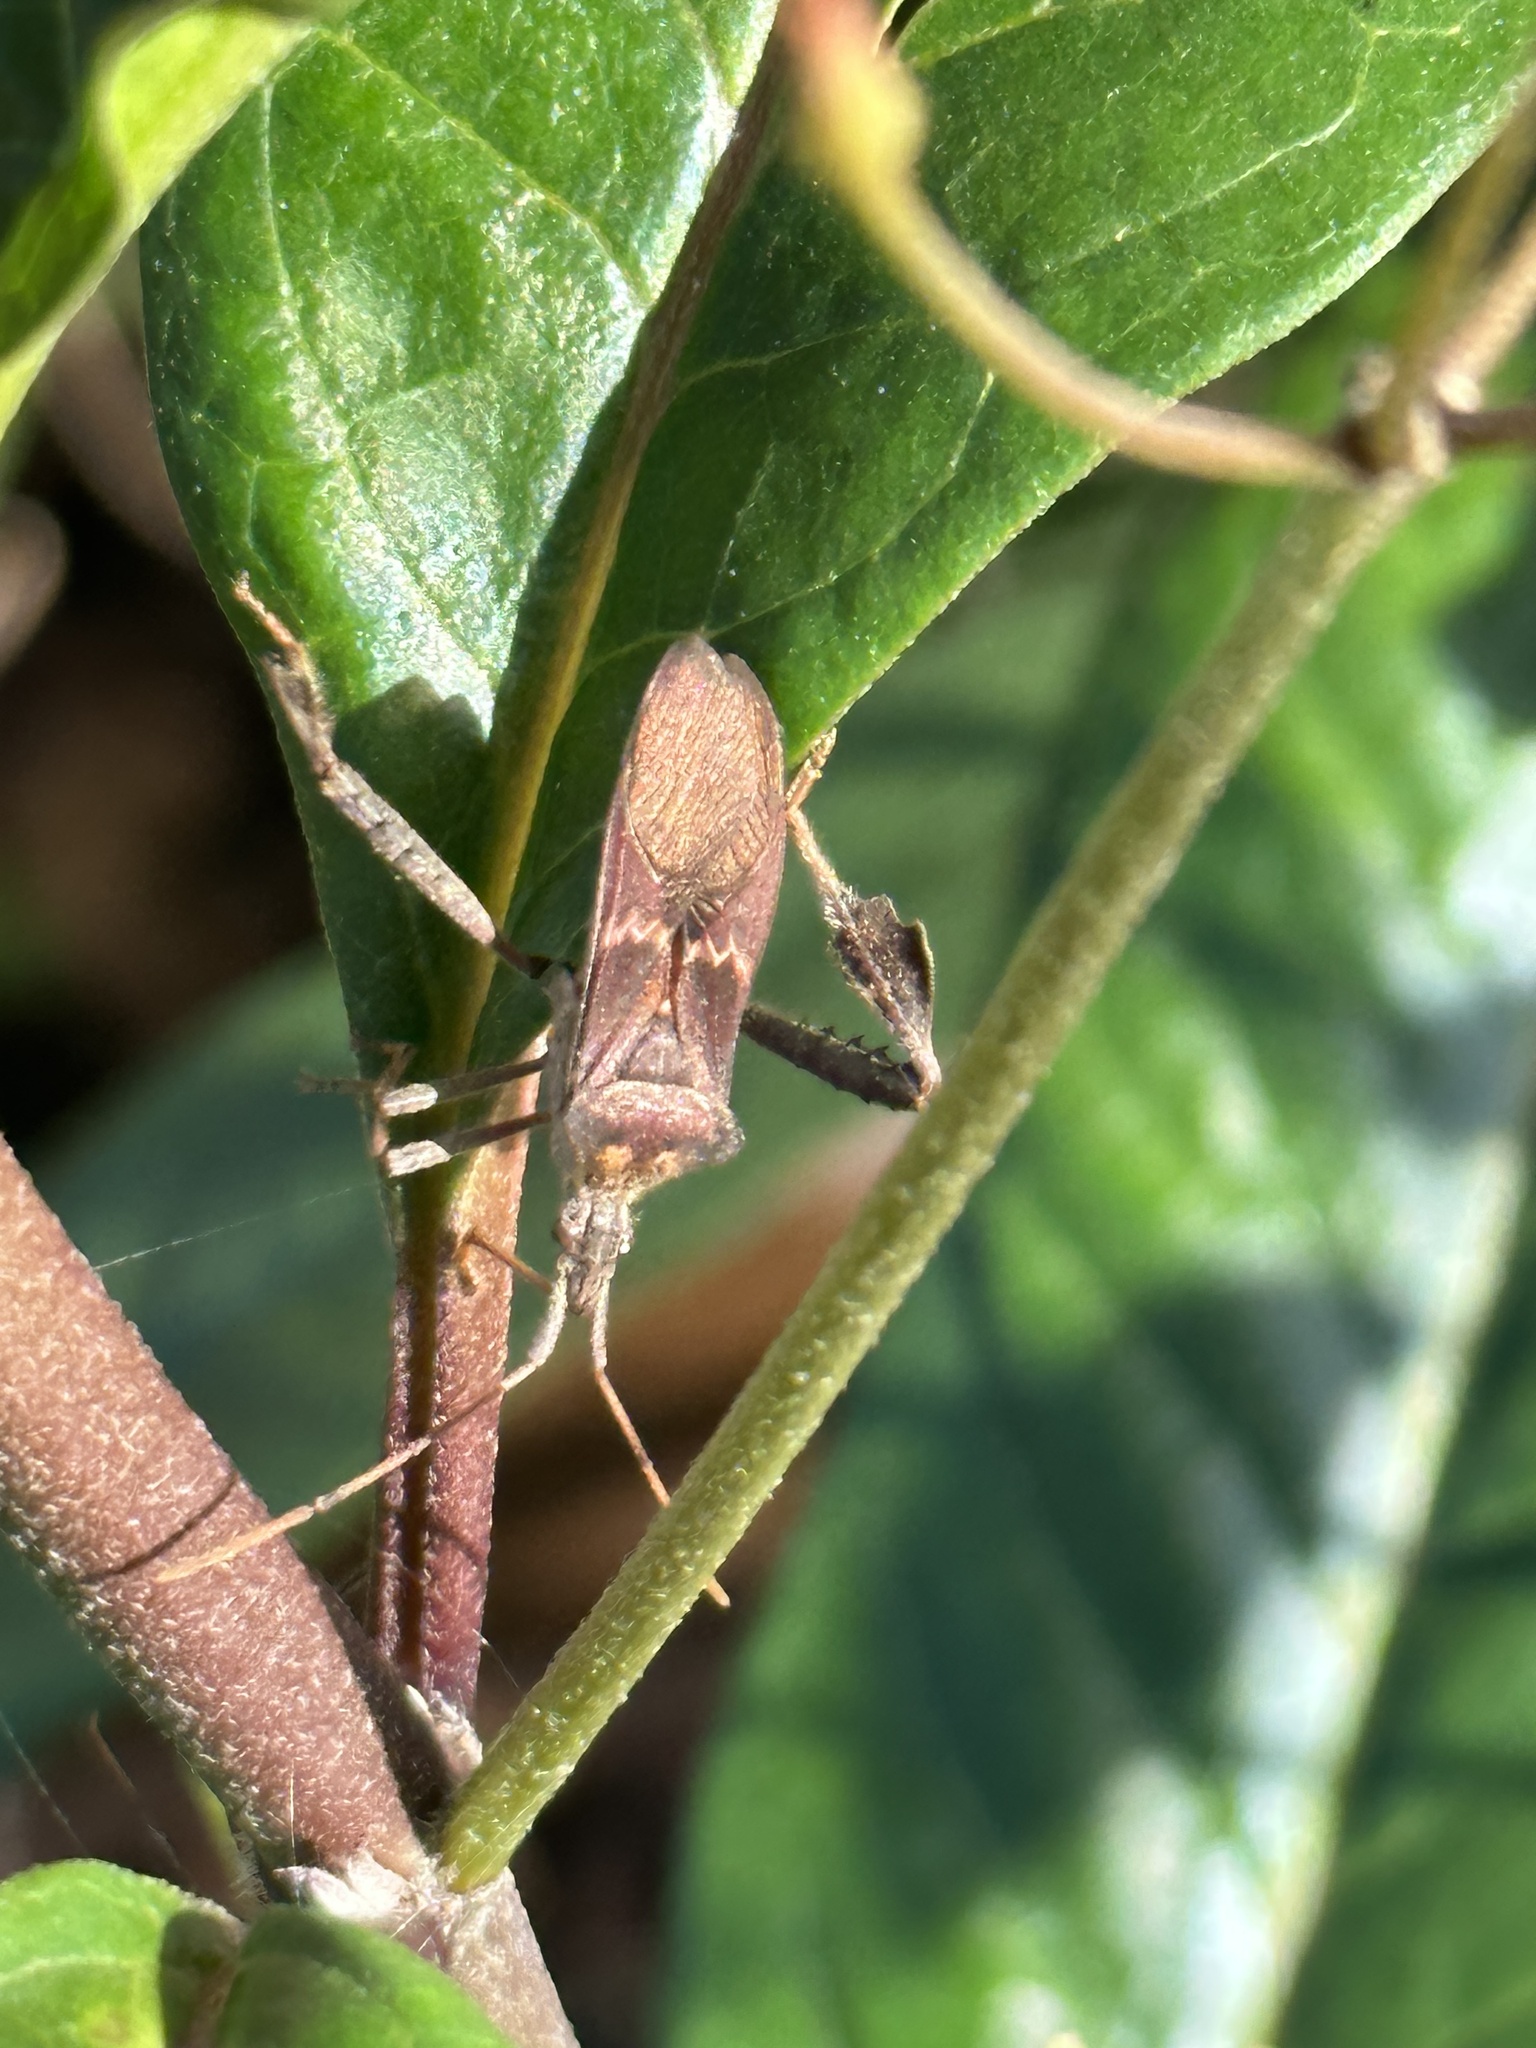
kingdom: Animalia
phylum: Arthropoda
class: Insecta
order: Hemiptera
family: Coreidae
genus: Leptoglossus
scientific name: Leptoglossus zonatus
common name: Large-legged bug
